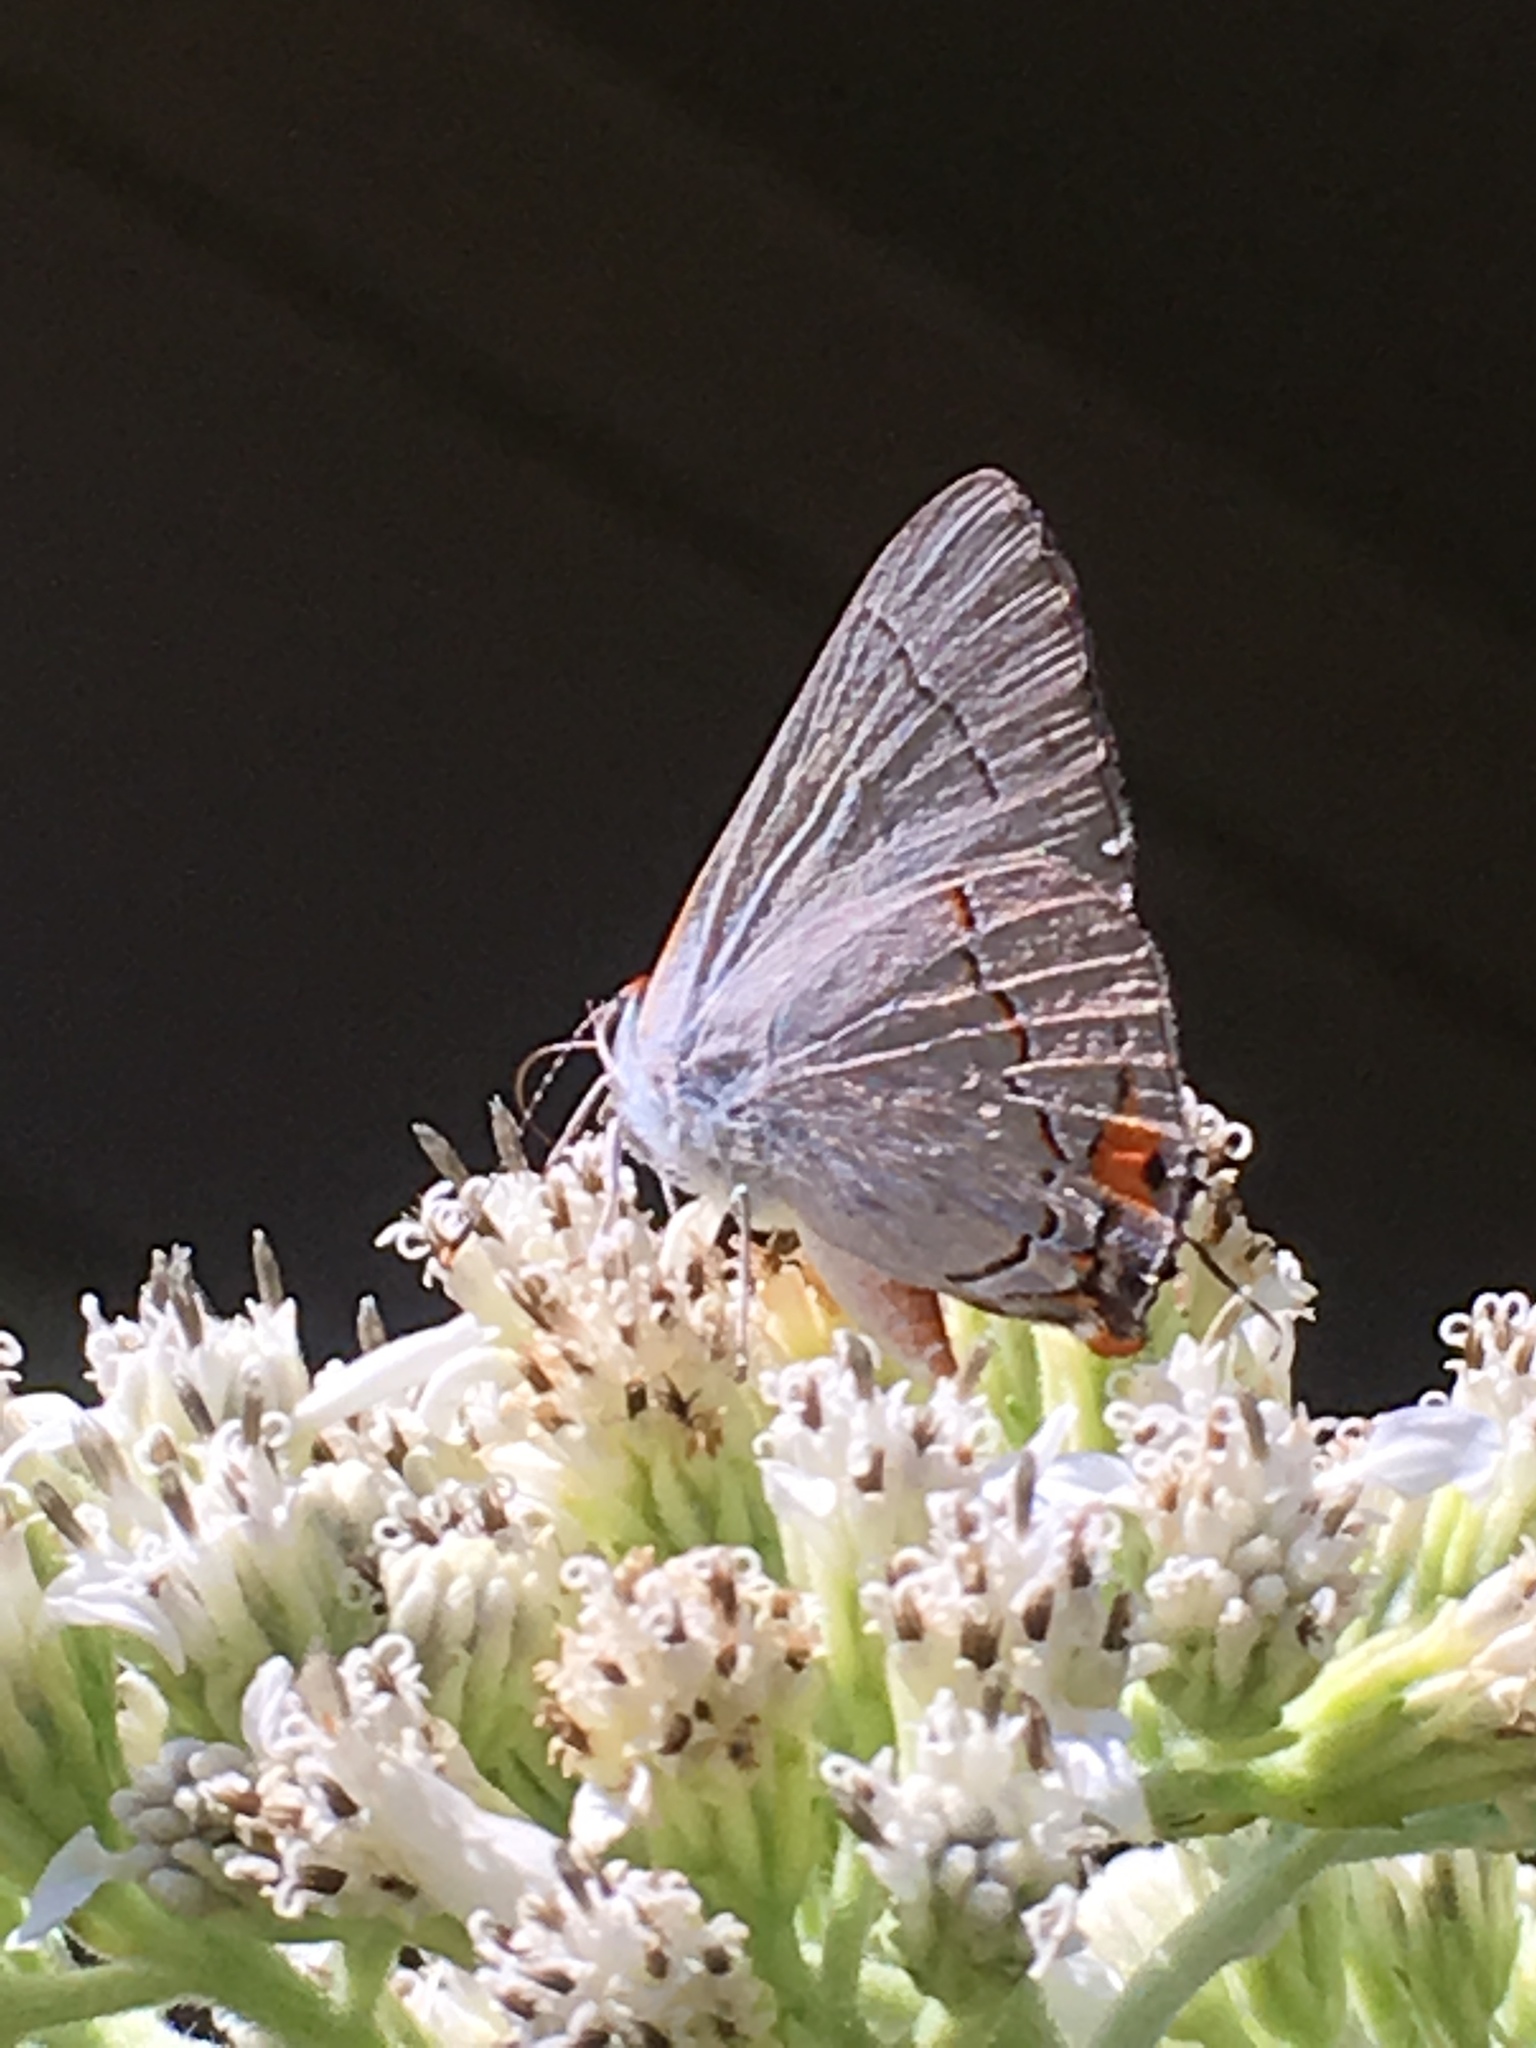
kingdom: Animalia
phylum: Arthropoda
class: Insecta
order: Lepidoptera
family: Lycaenidae
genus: Strymon
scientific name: Strymon melinus
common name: Gray hairstreak
